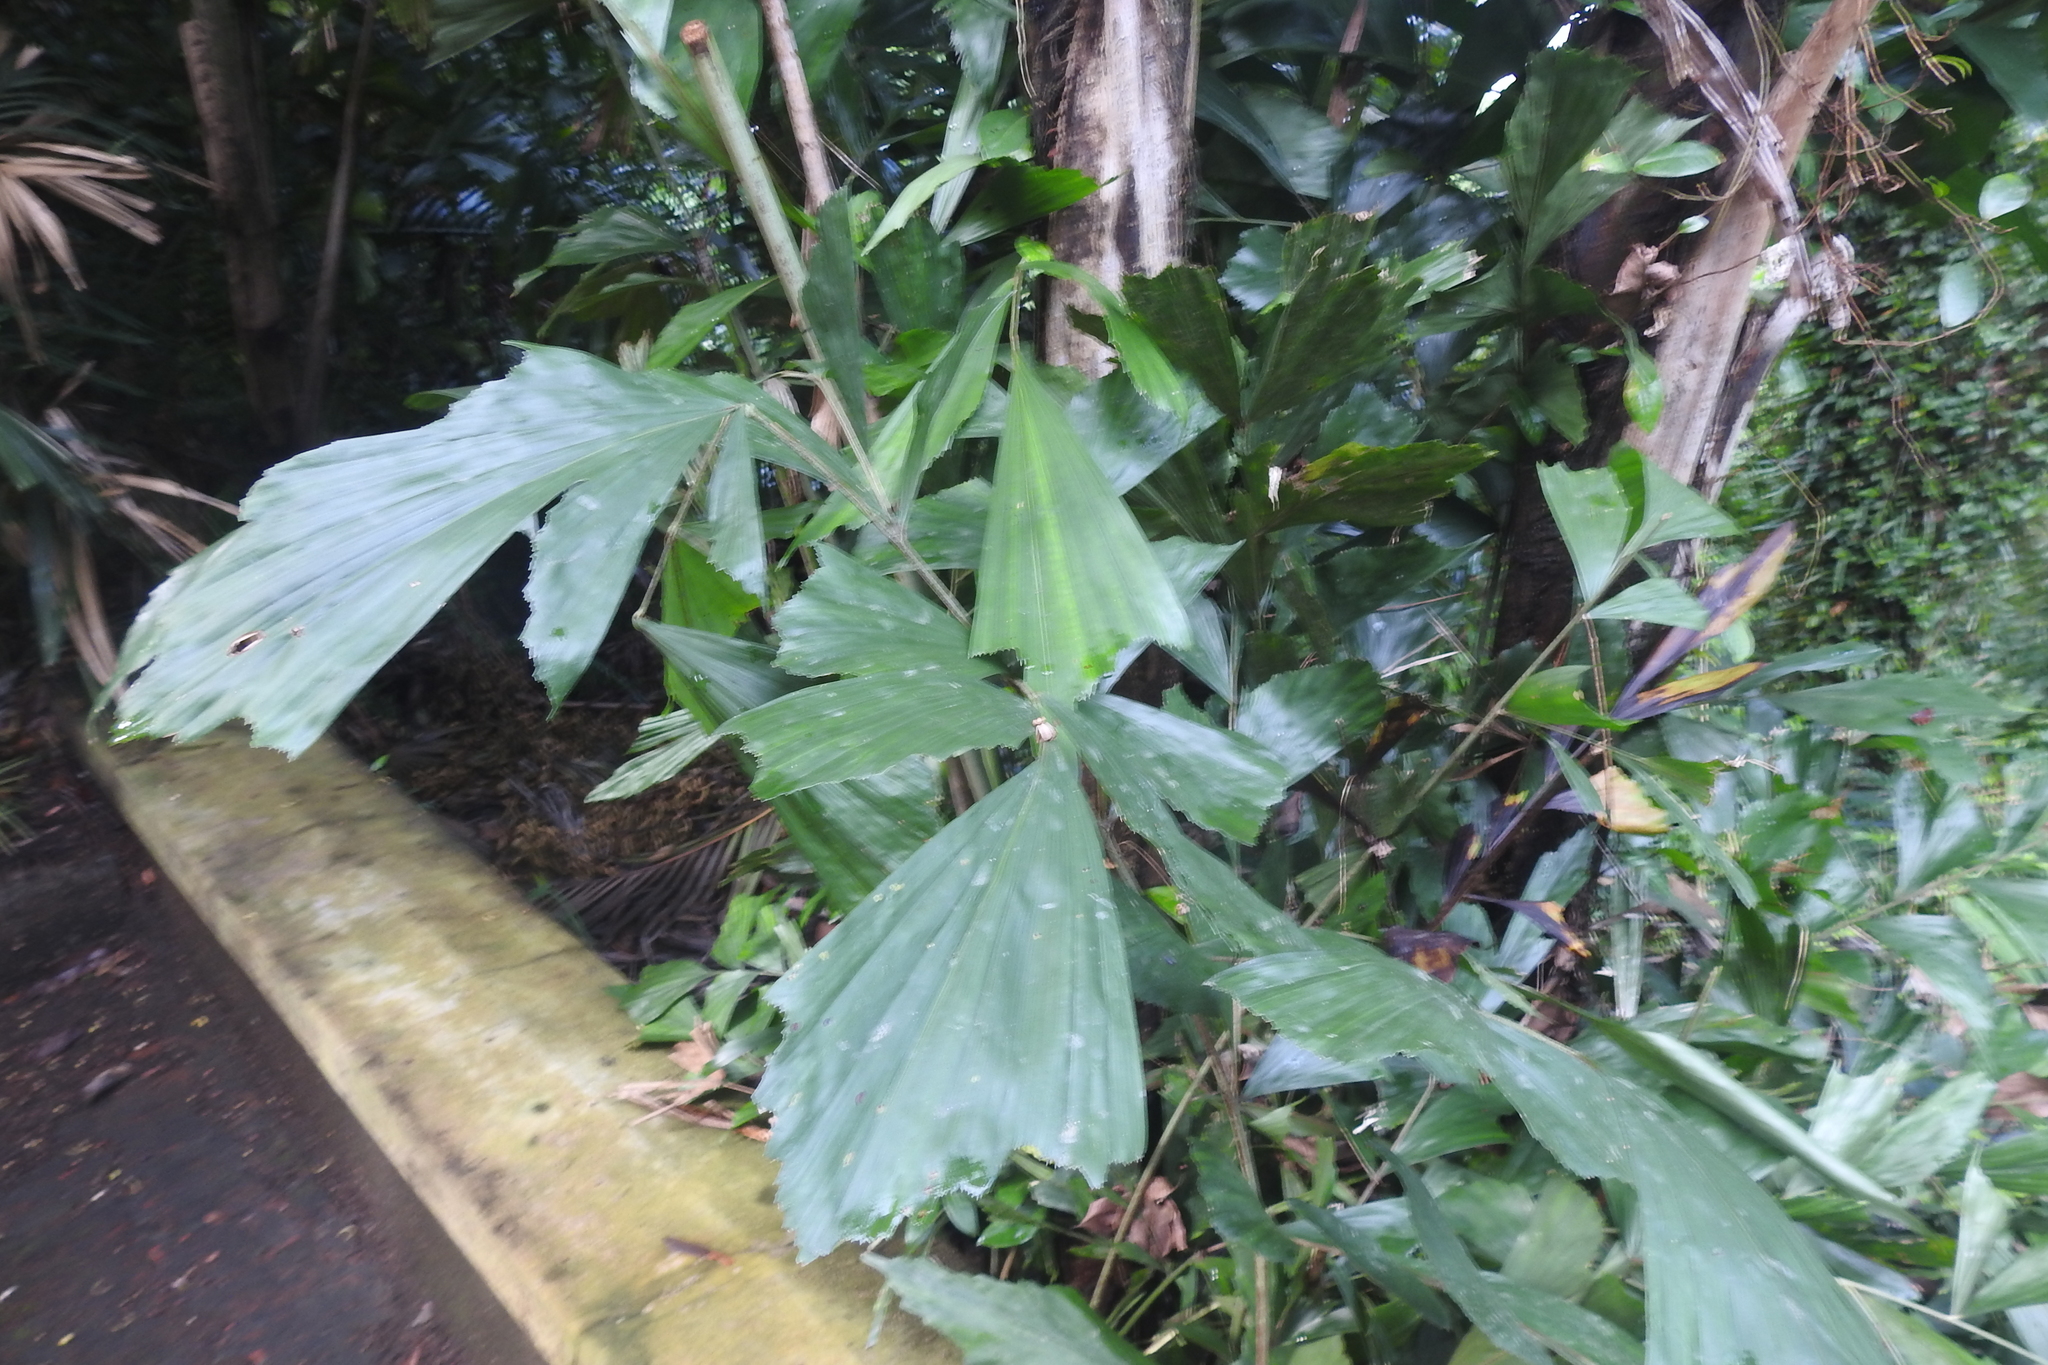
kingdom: Plantae
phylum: Tracheophyta
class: Liliopsida
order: Arecales
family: Arecaceae
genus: Caryota
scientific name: Caryota mitis
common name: Burmese fishtail palm
